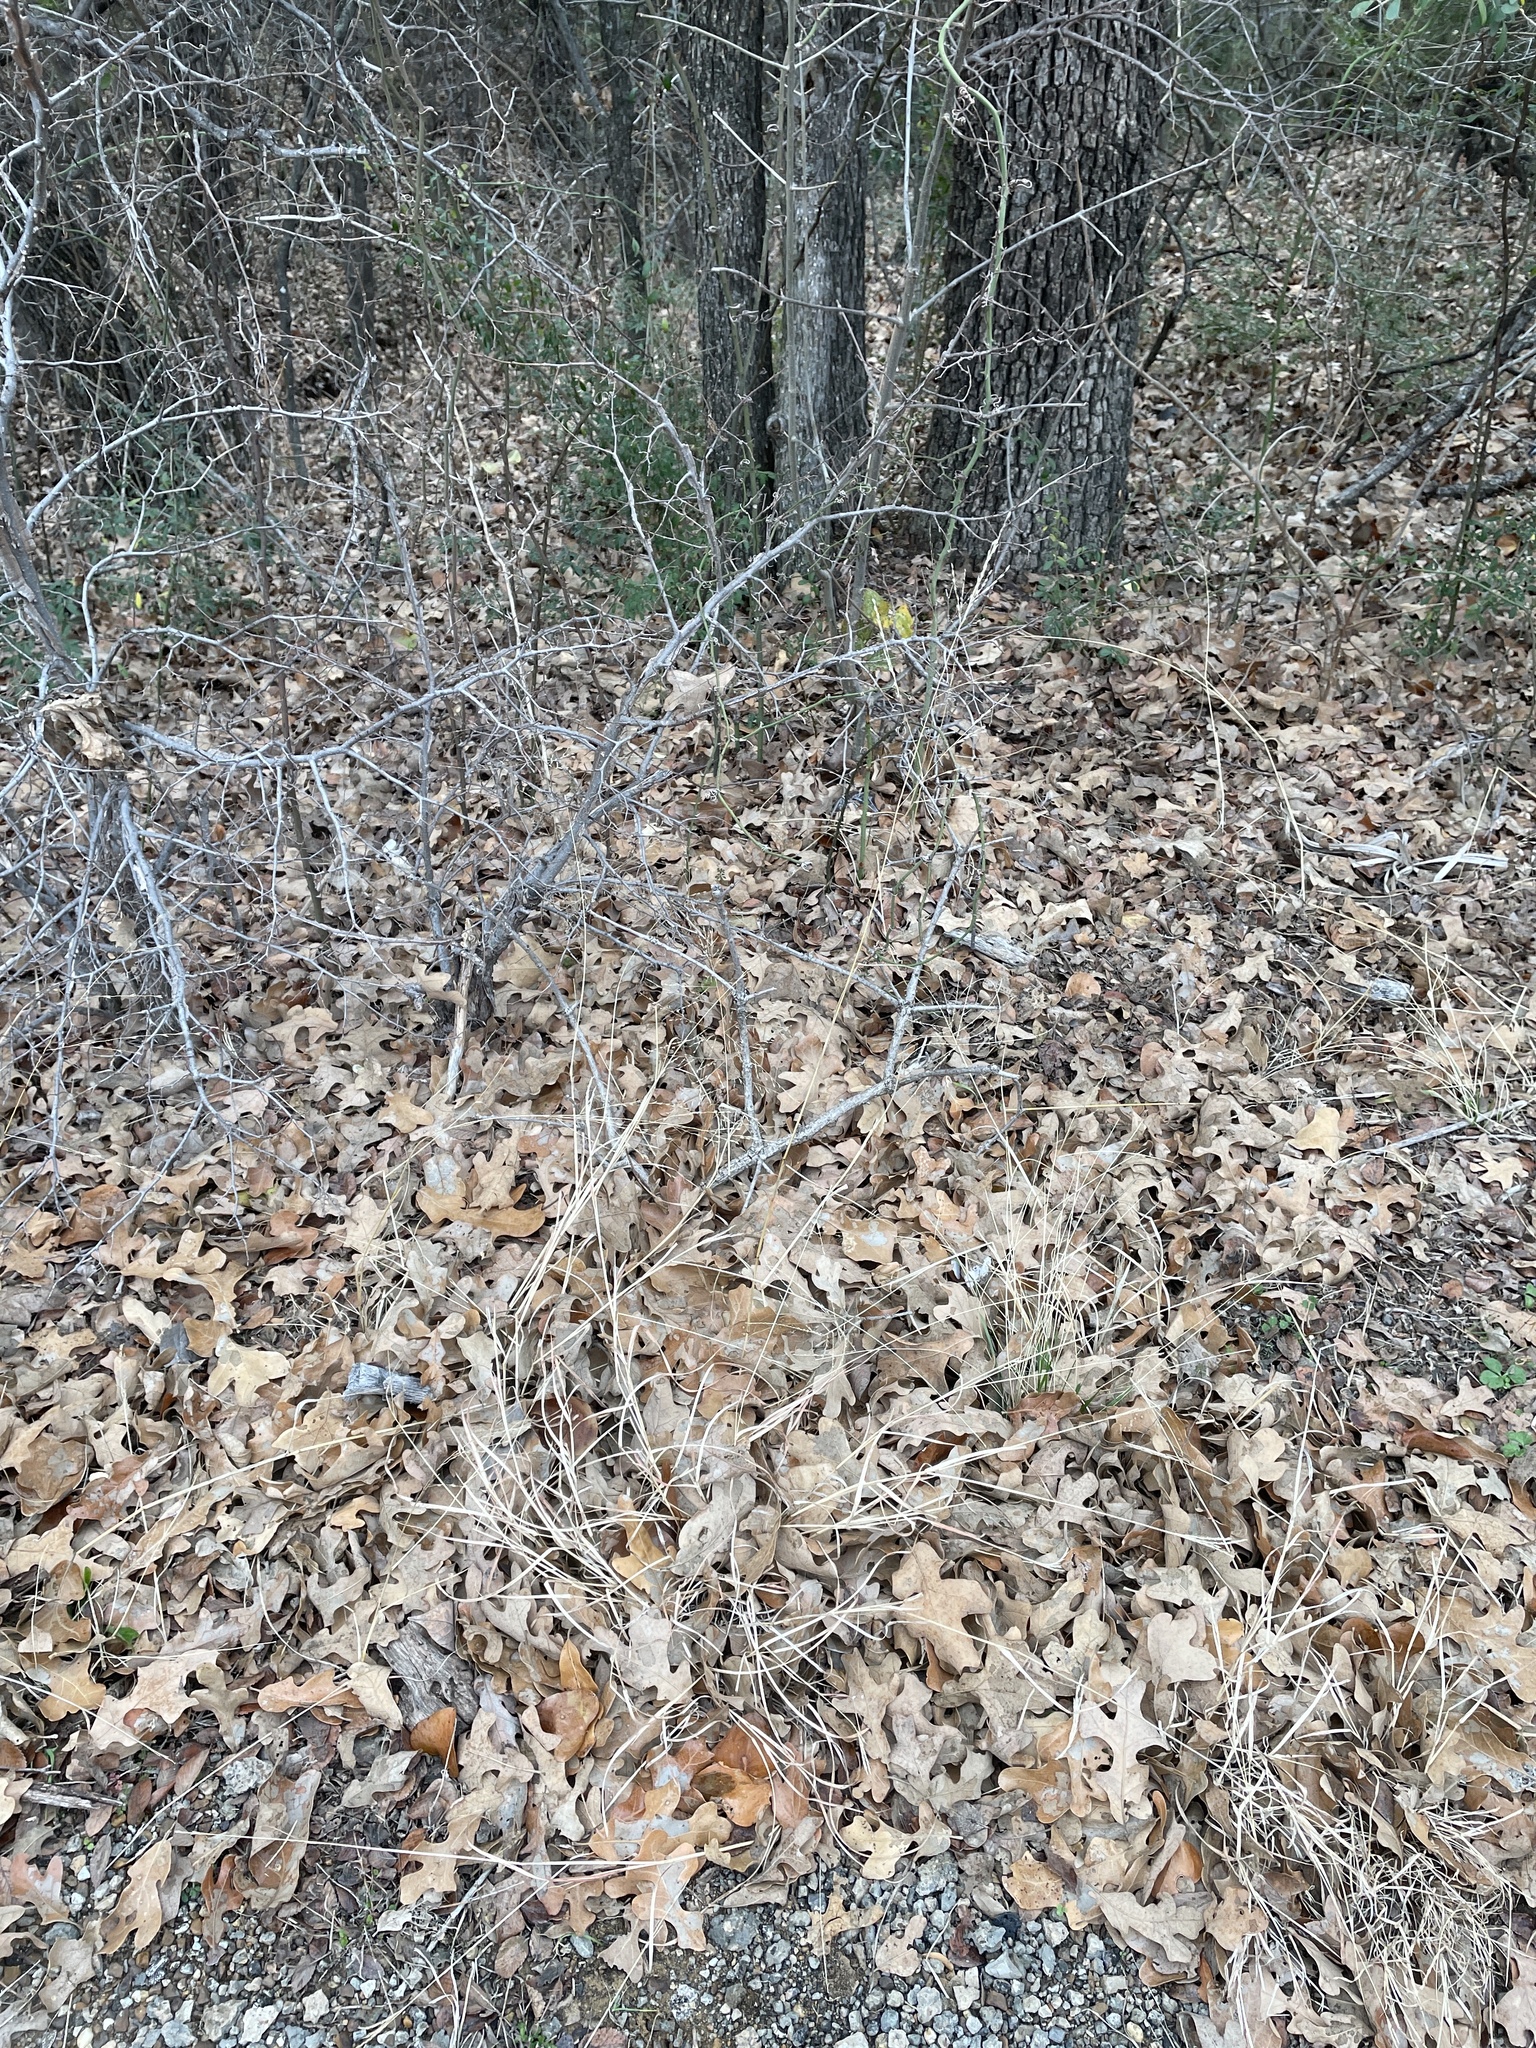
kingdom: Plantae
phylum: Tracheophyta
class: Liliopsida
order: Poales
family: Poaceae
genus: Tridens
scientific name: Tridens flavus
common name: Purpletop
